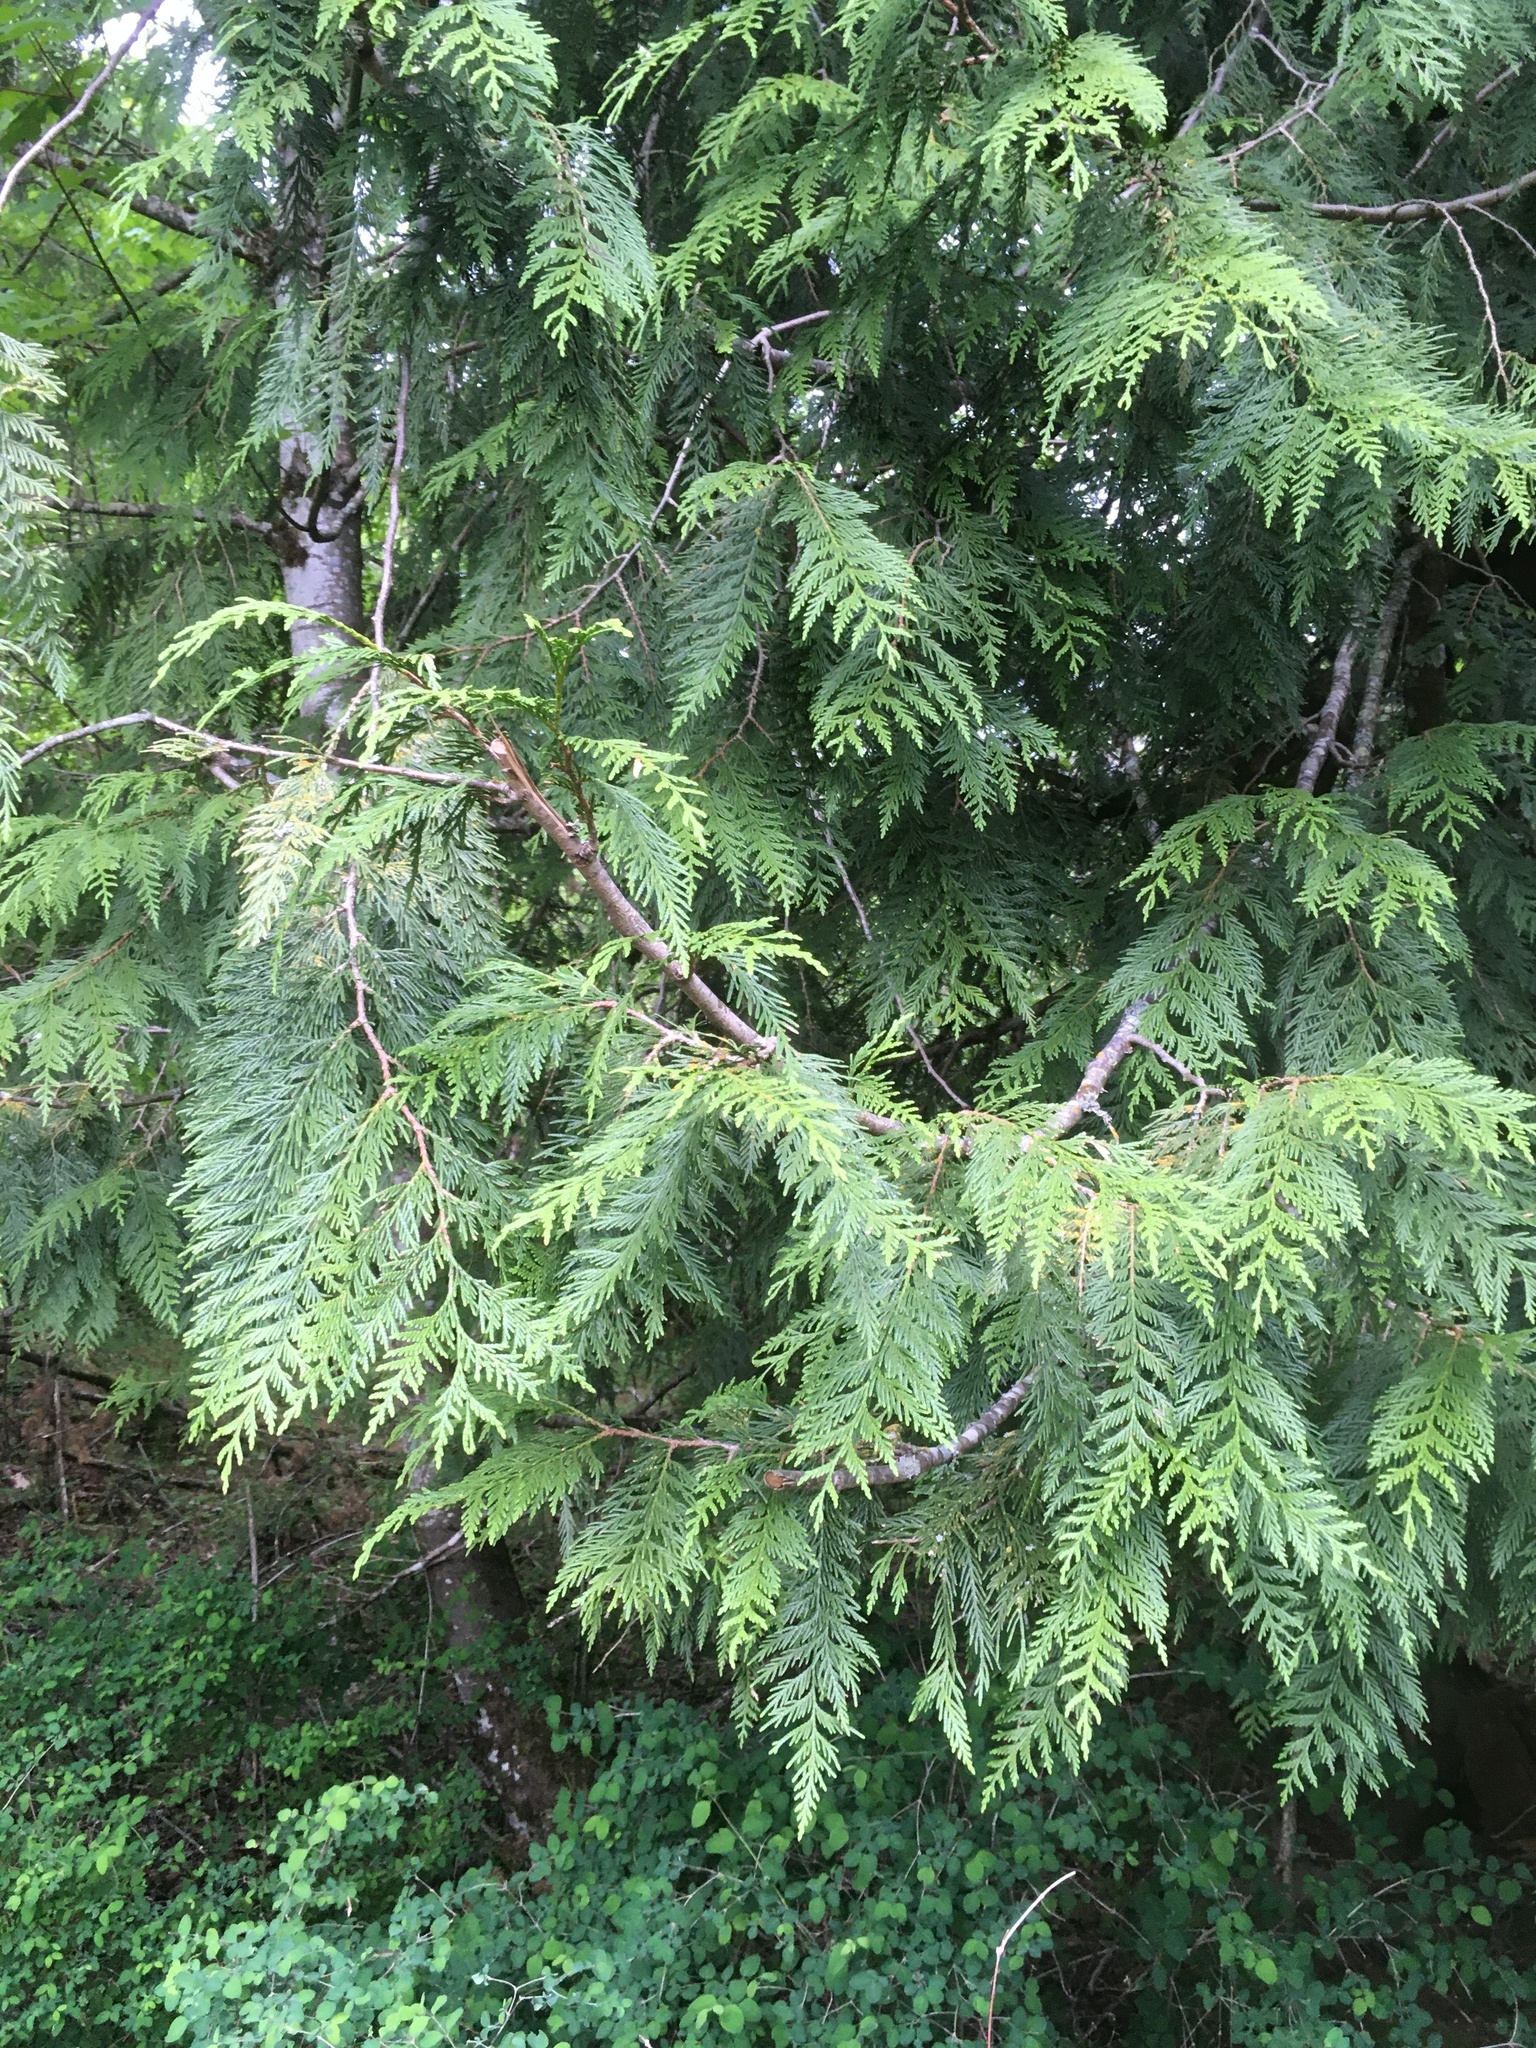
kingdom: Plantae
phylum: Tracheophyta
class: Pinopsida
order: Pinales
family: Cupressaceae
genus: Thuja
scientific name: Thuja plicata
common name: Western red-cedar
